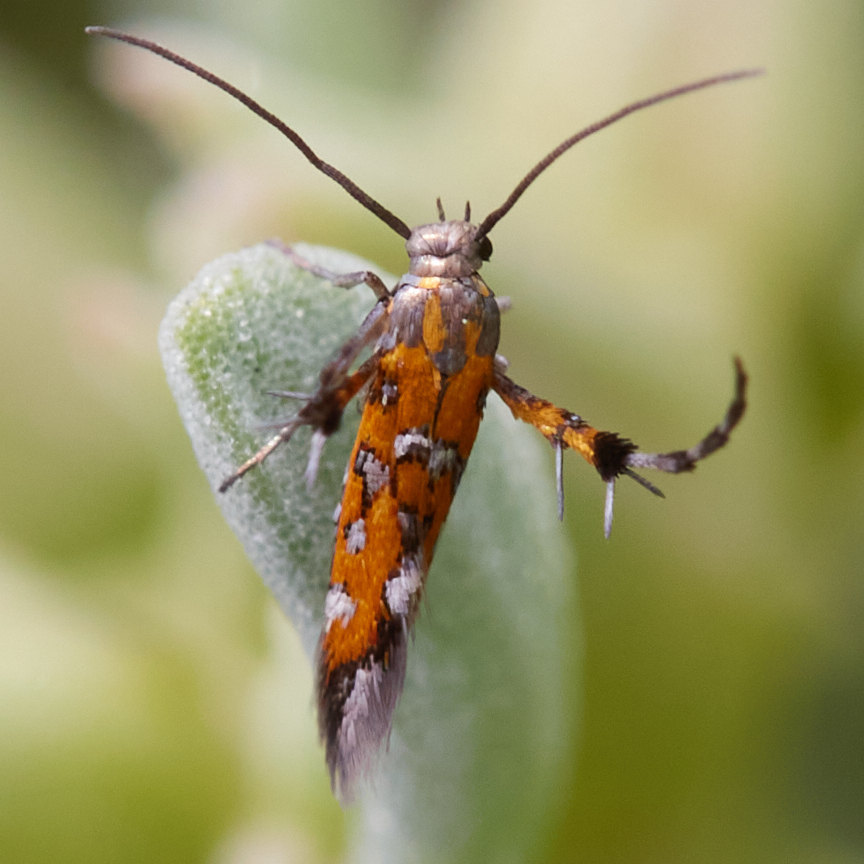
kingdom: Animalia
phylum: Arthropoda
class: Insecta
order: Lepidoptera
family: Heliodinidae
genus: Heliodines
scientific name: Heliodines
